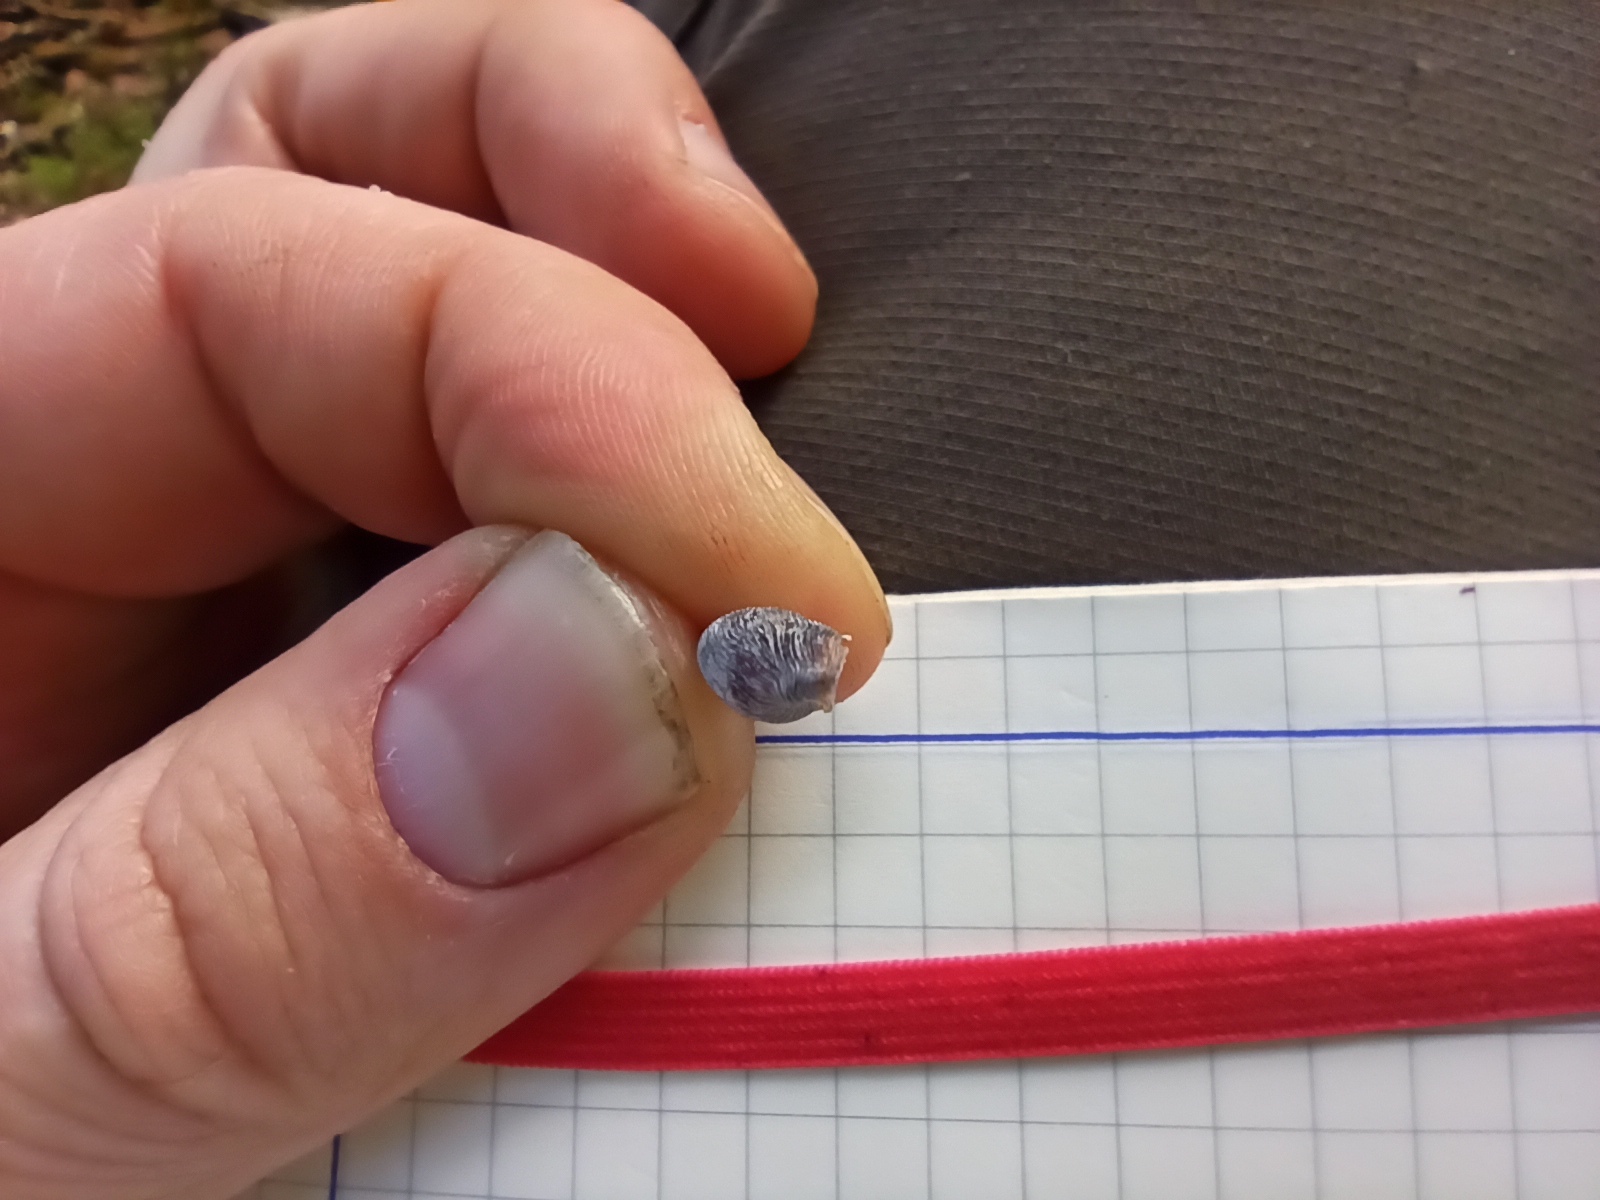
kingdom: Animalia
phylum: Mollusca
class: Gastropoda
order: Stylommatophora
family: Clausiliidae
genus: Alinda
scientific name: Alinda biplicata
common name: Thames door snail
